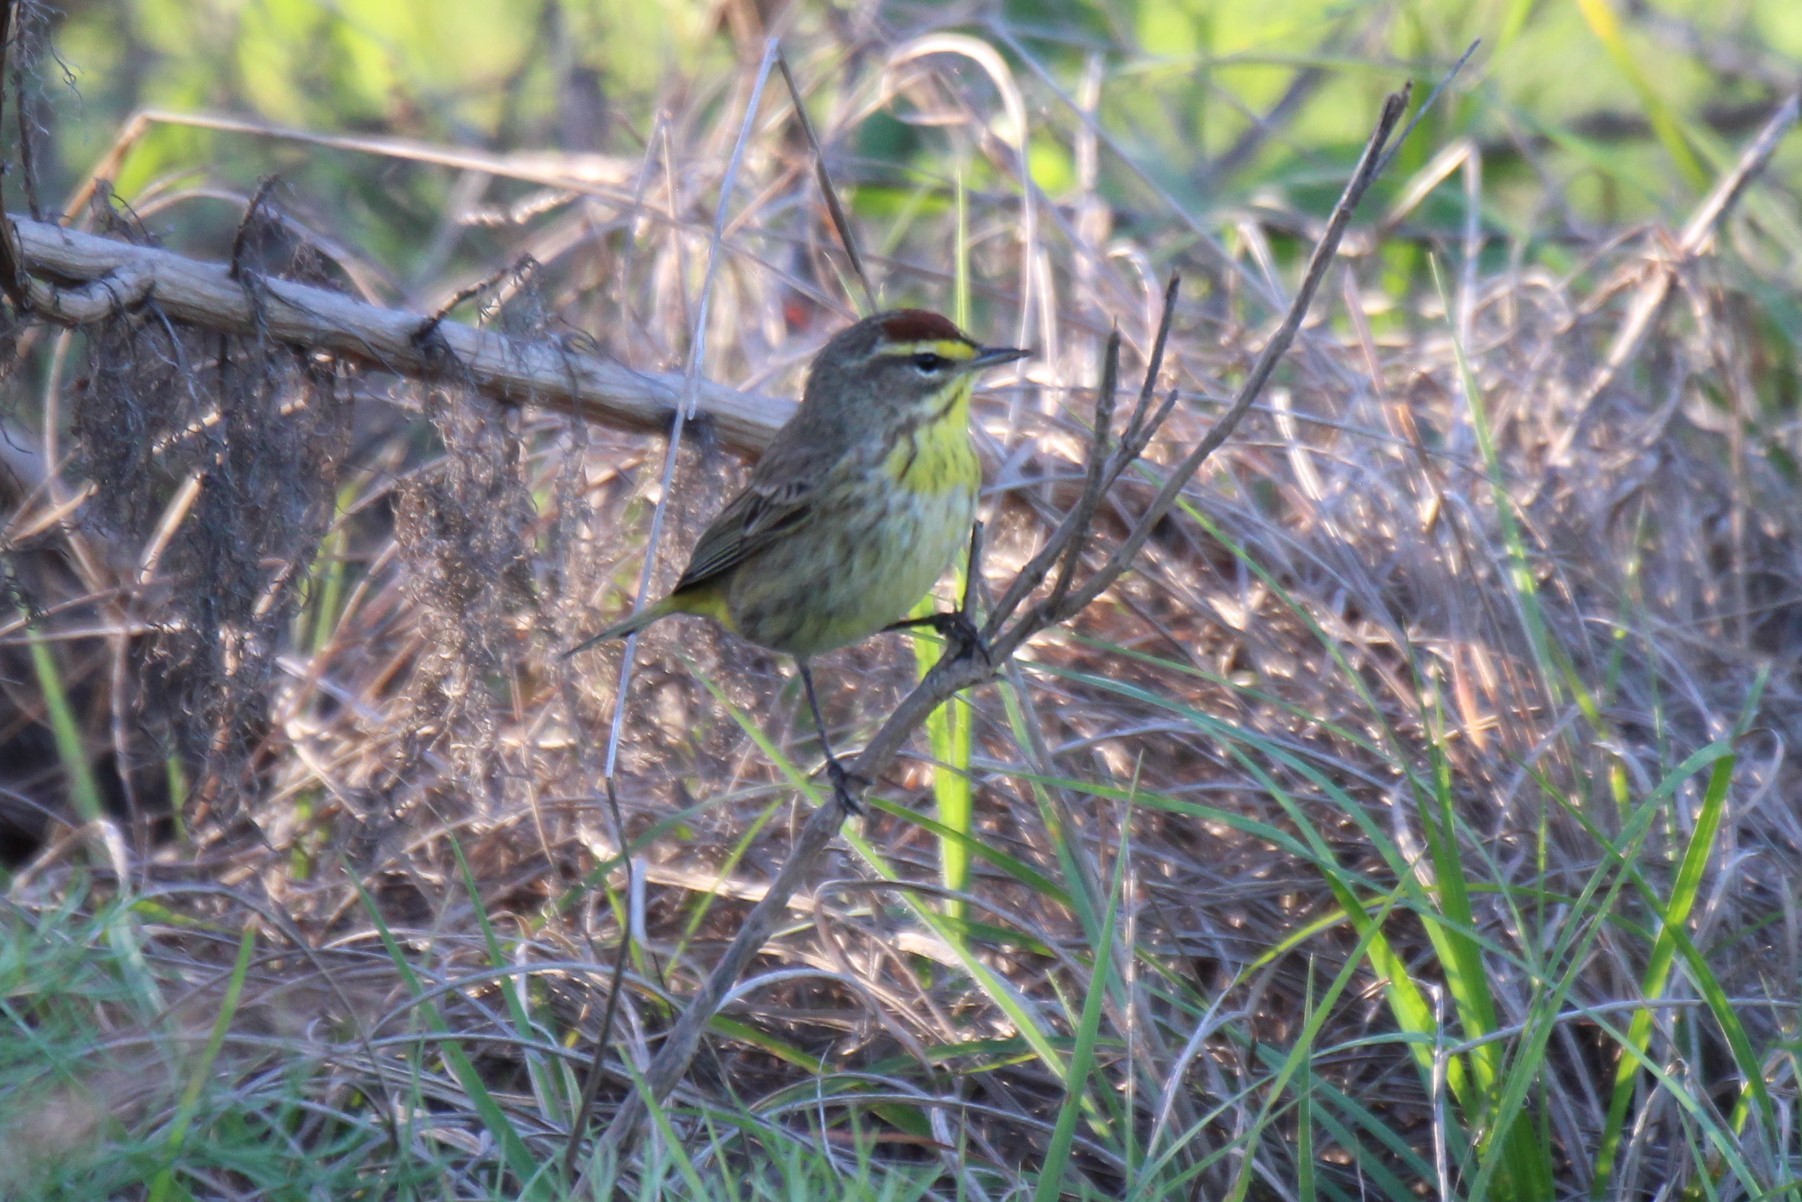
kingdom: Animalia
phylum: Chordata
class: Aves
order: Passeriformes
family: Parulidae
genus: Setophaga
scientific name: Setophaga palmarum
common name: Palm warbler
